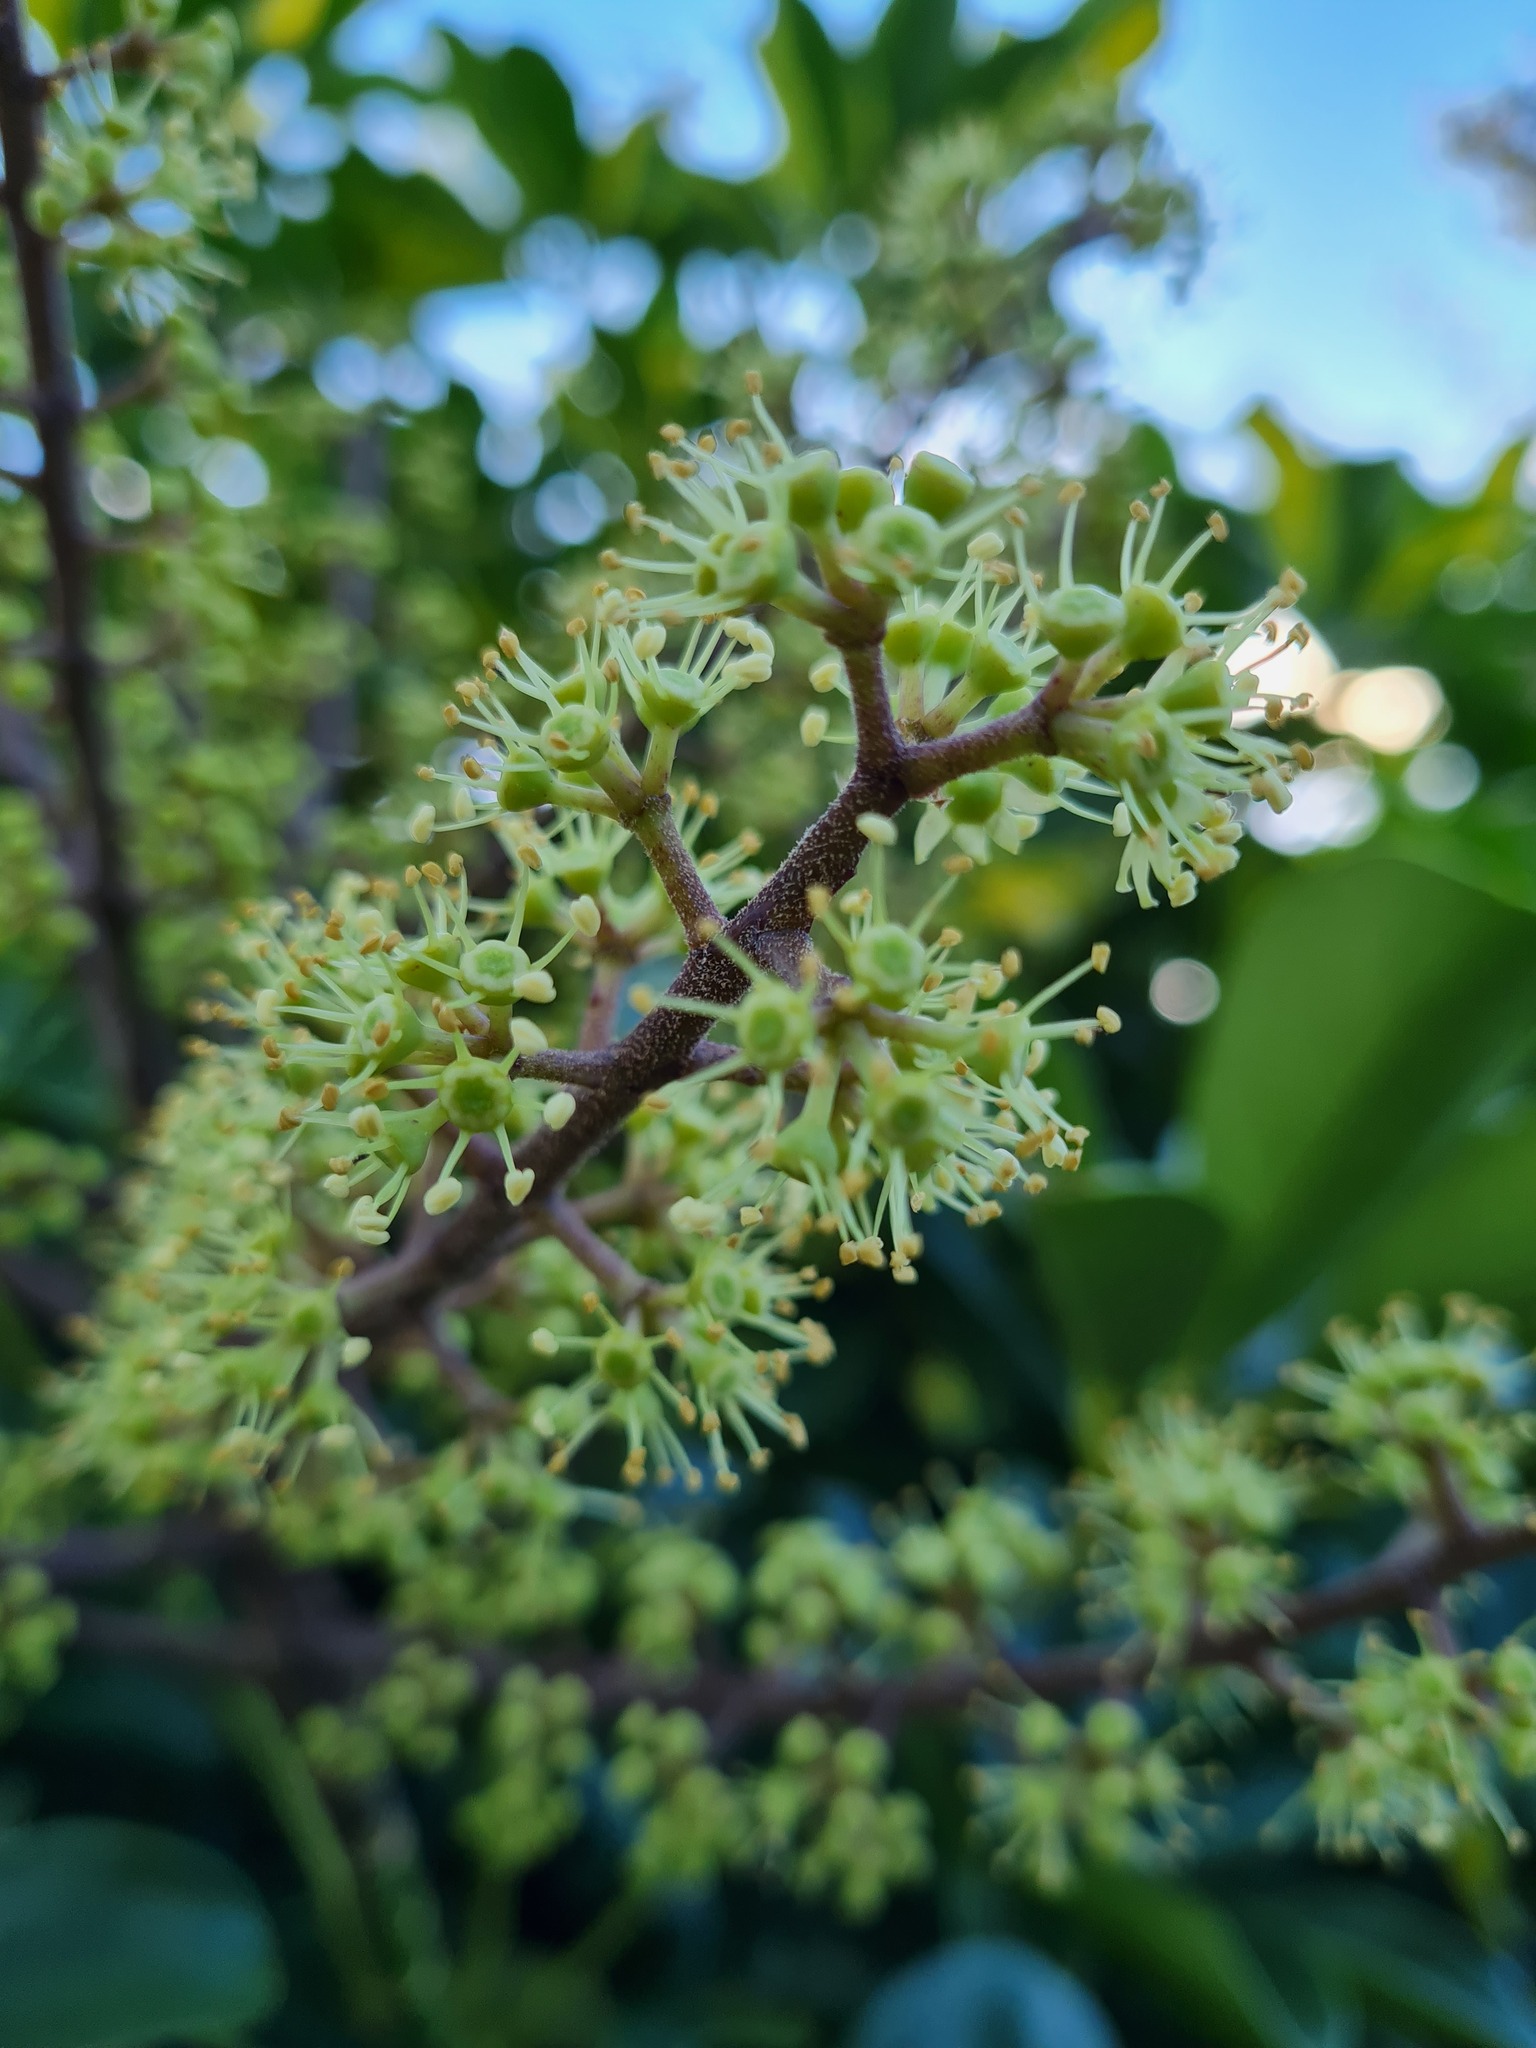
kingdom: Plantae
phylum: Tracheophyta
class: Magnoliopsida
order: Apiales
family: Araliaceae
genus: Heptapleurum
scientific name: Heptapleurum arboricola
